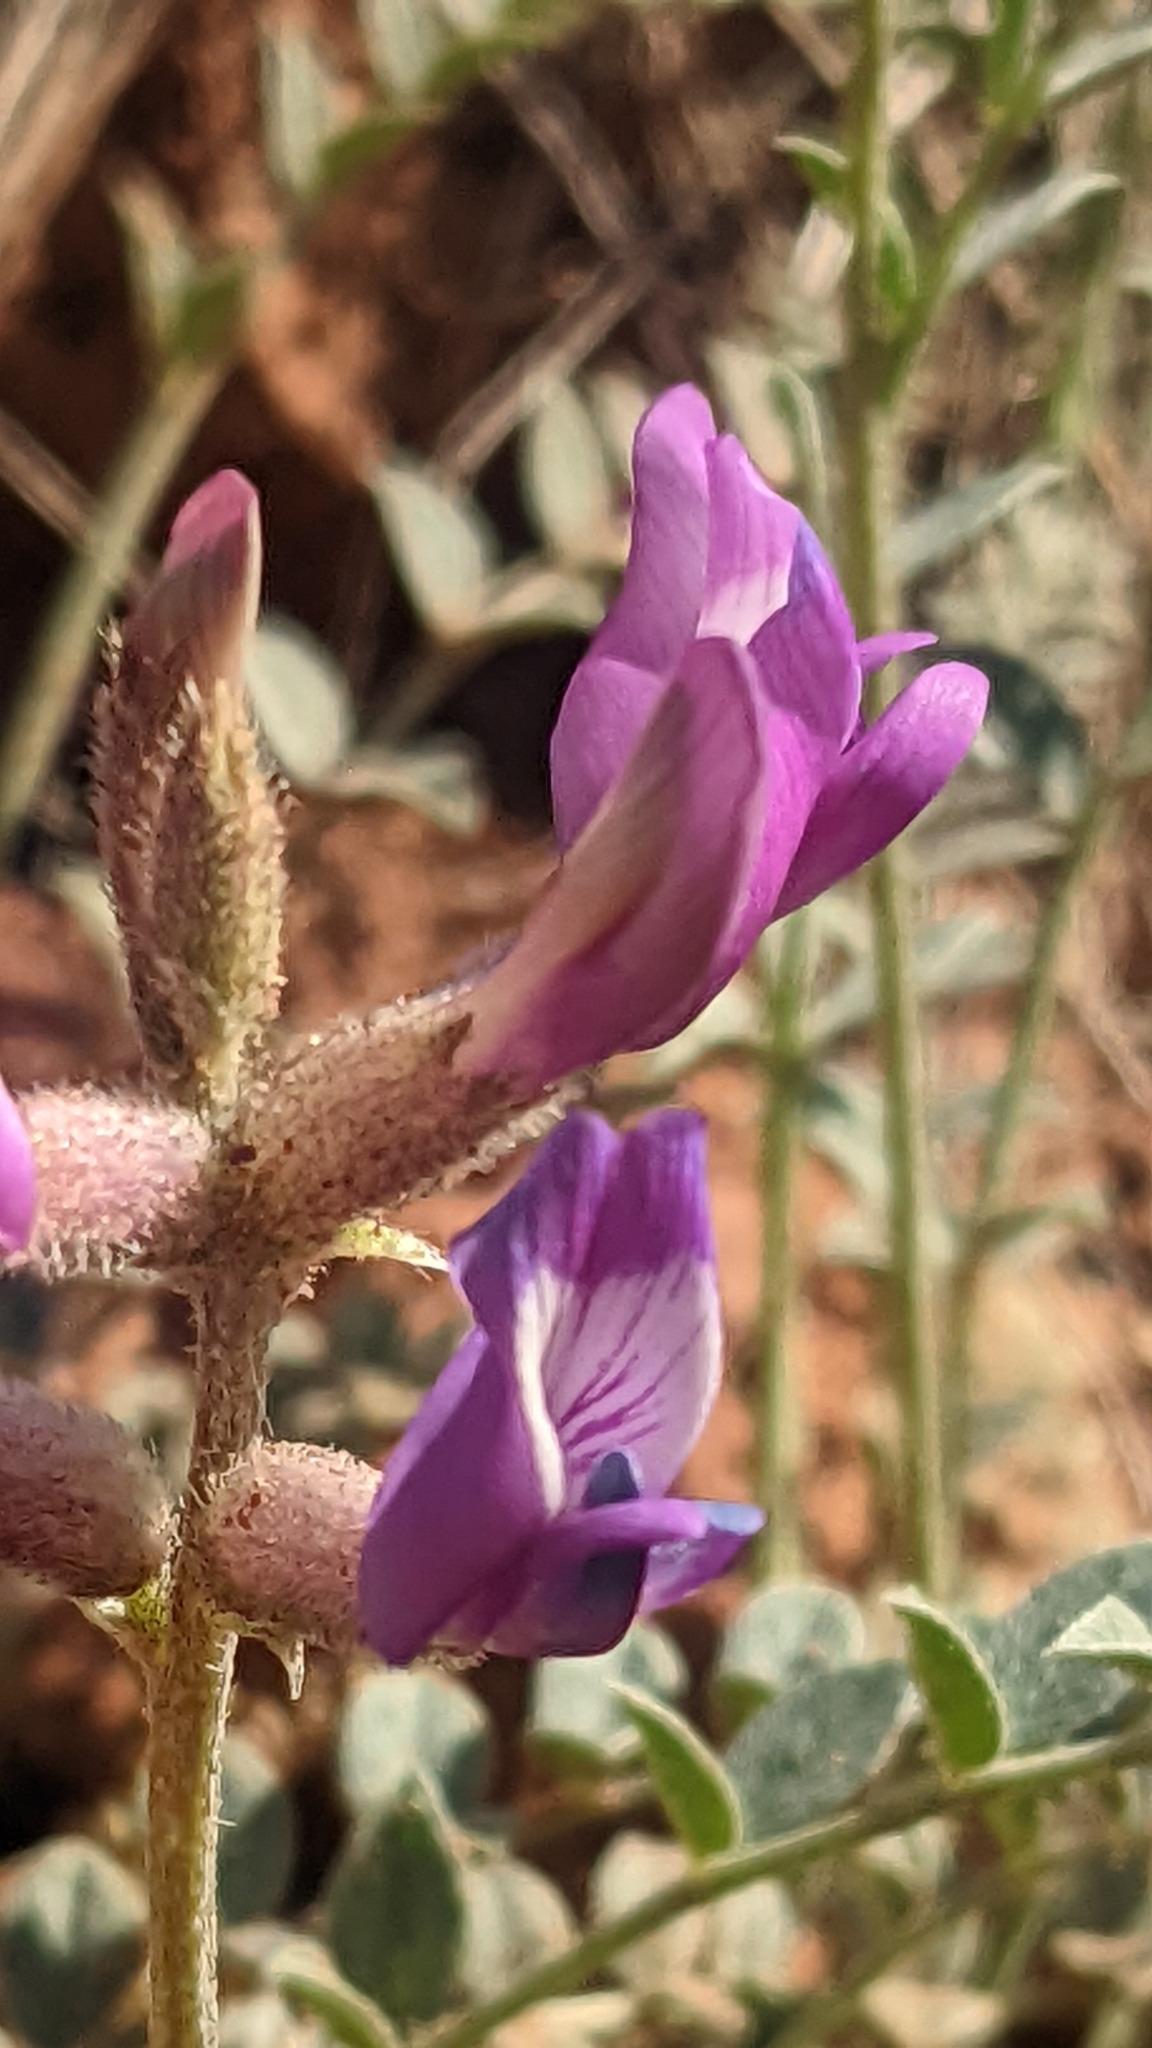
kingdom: Plantae
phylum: Tracheophyta
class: Magnoliopsida
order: Fabales
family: Fabaceae
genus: Astragalus
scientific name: Astragalus zionis
